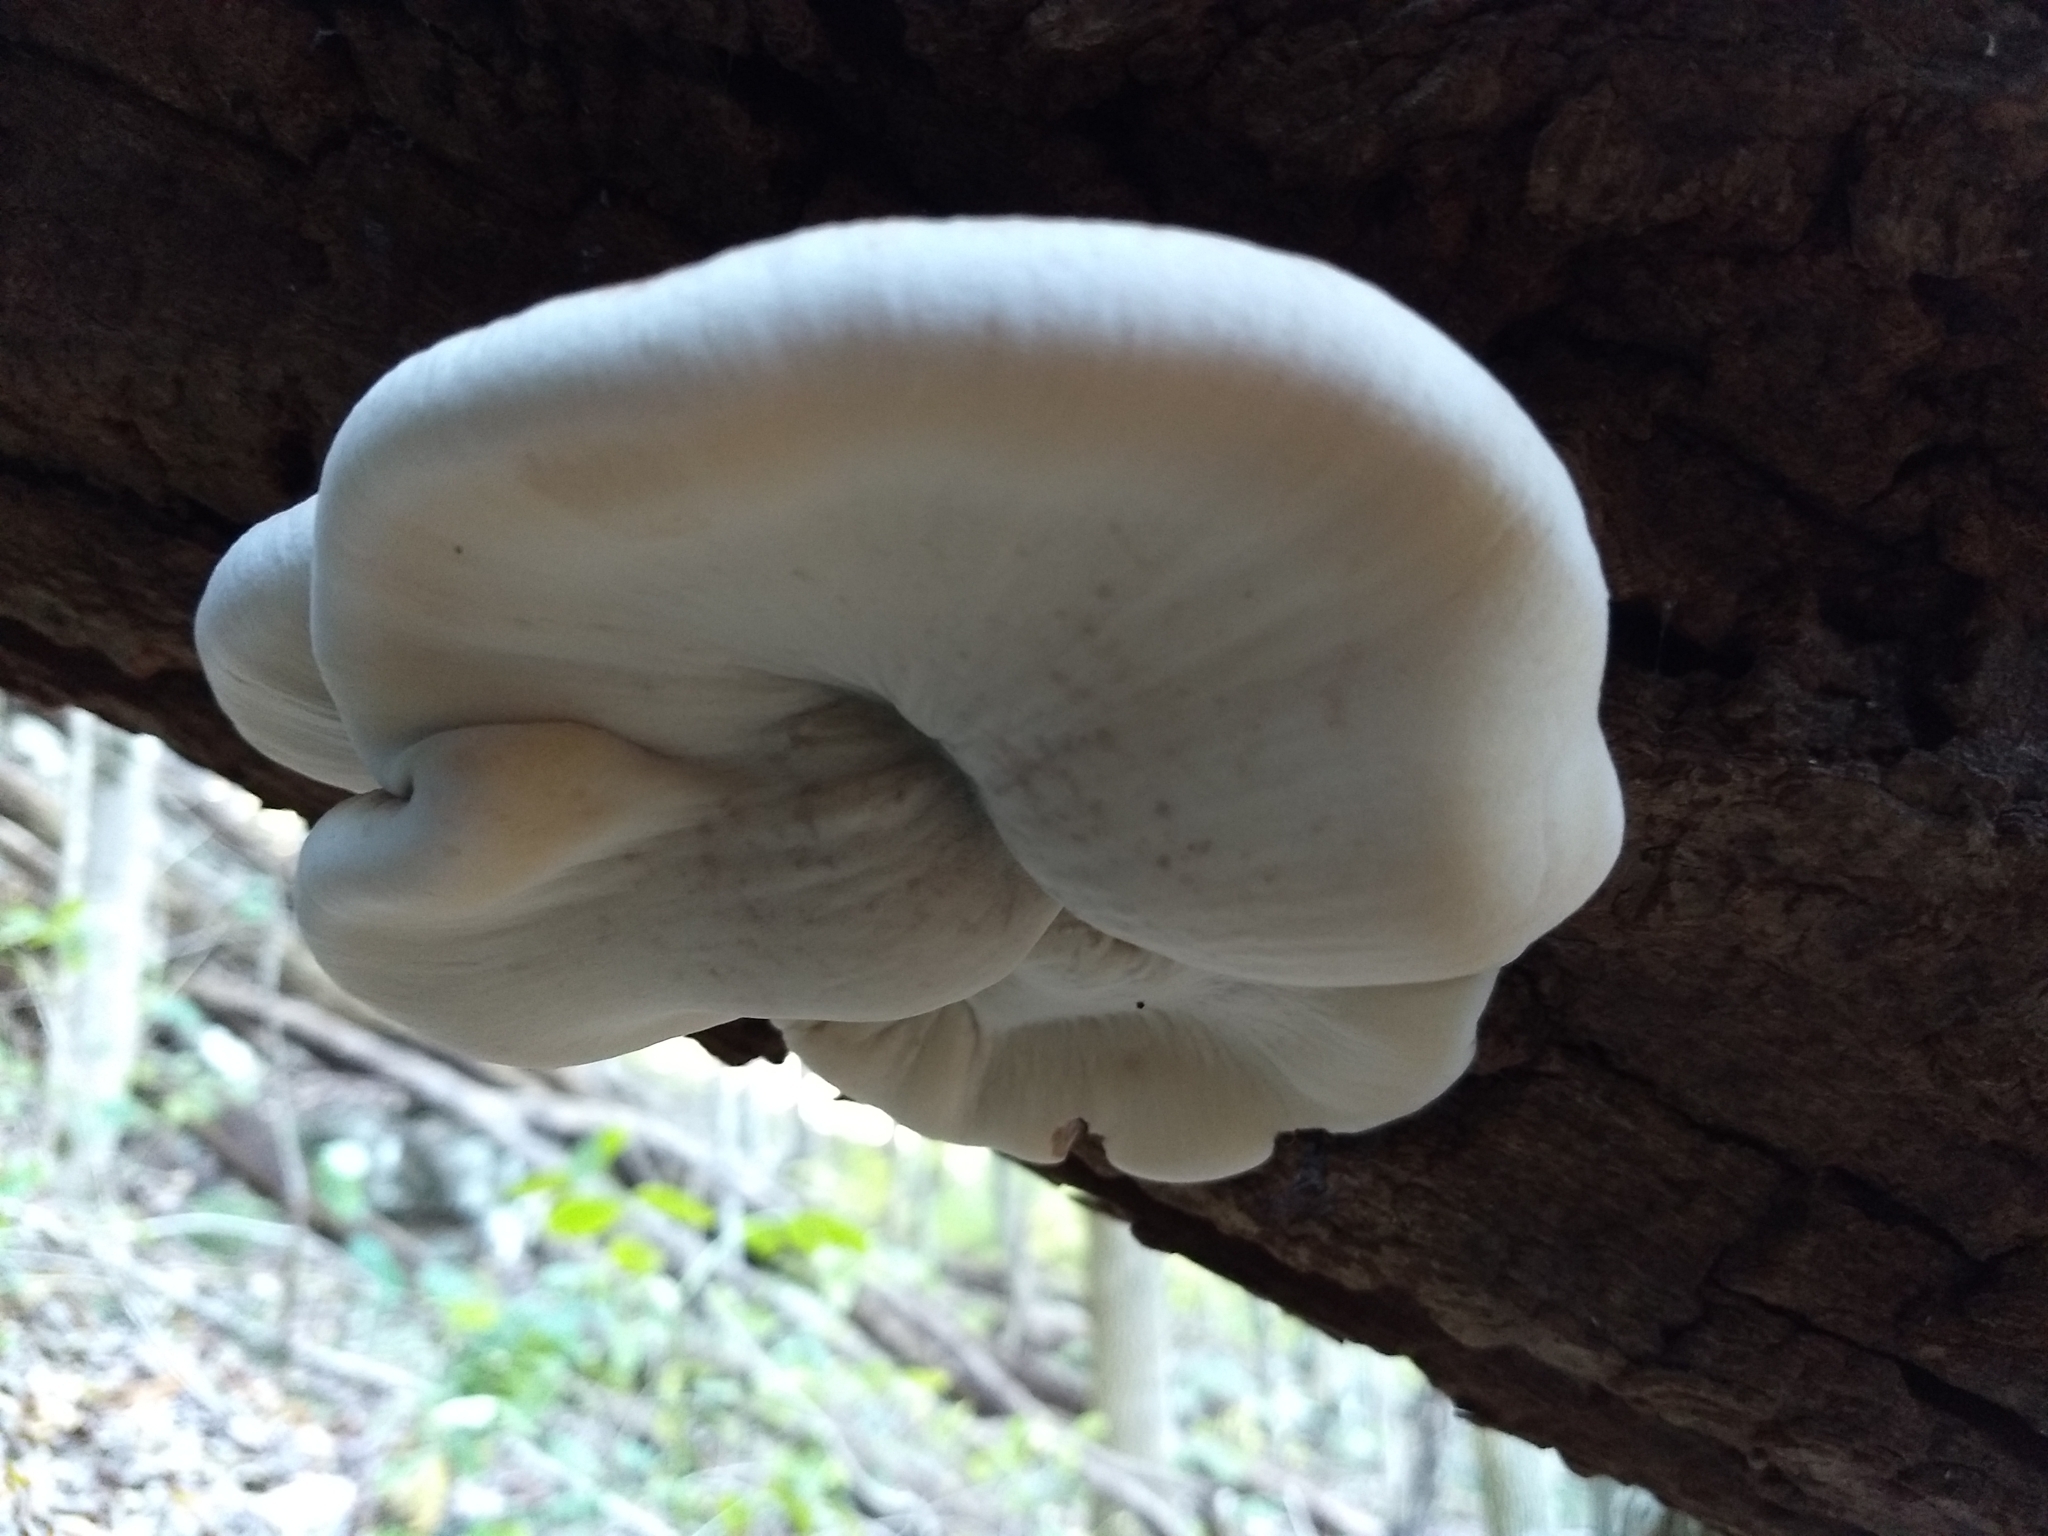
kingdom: Fungi
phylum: Basidiomycota
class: Agaricomycetes
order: Polyporales
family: Ischnodermataceae
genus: Ischnoderma
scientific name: Ischnoderma resinosum
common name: Resinous polypore
